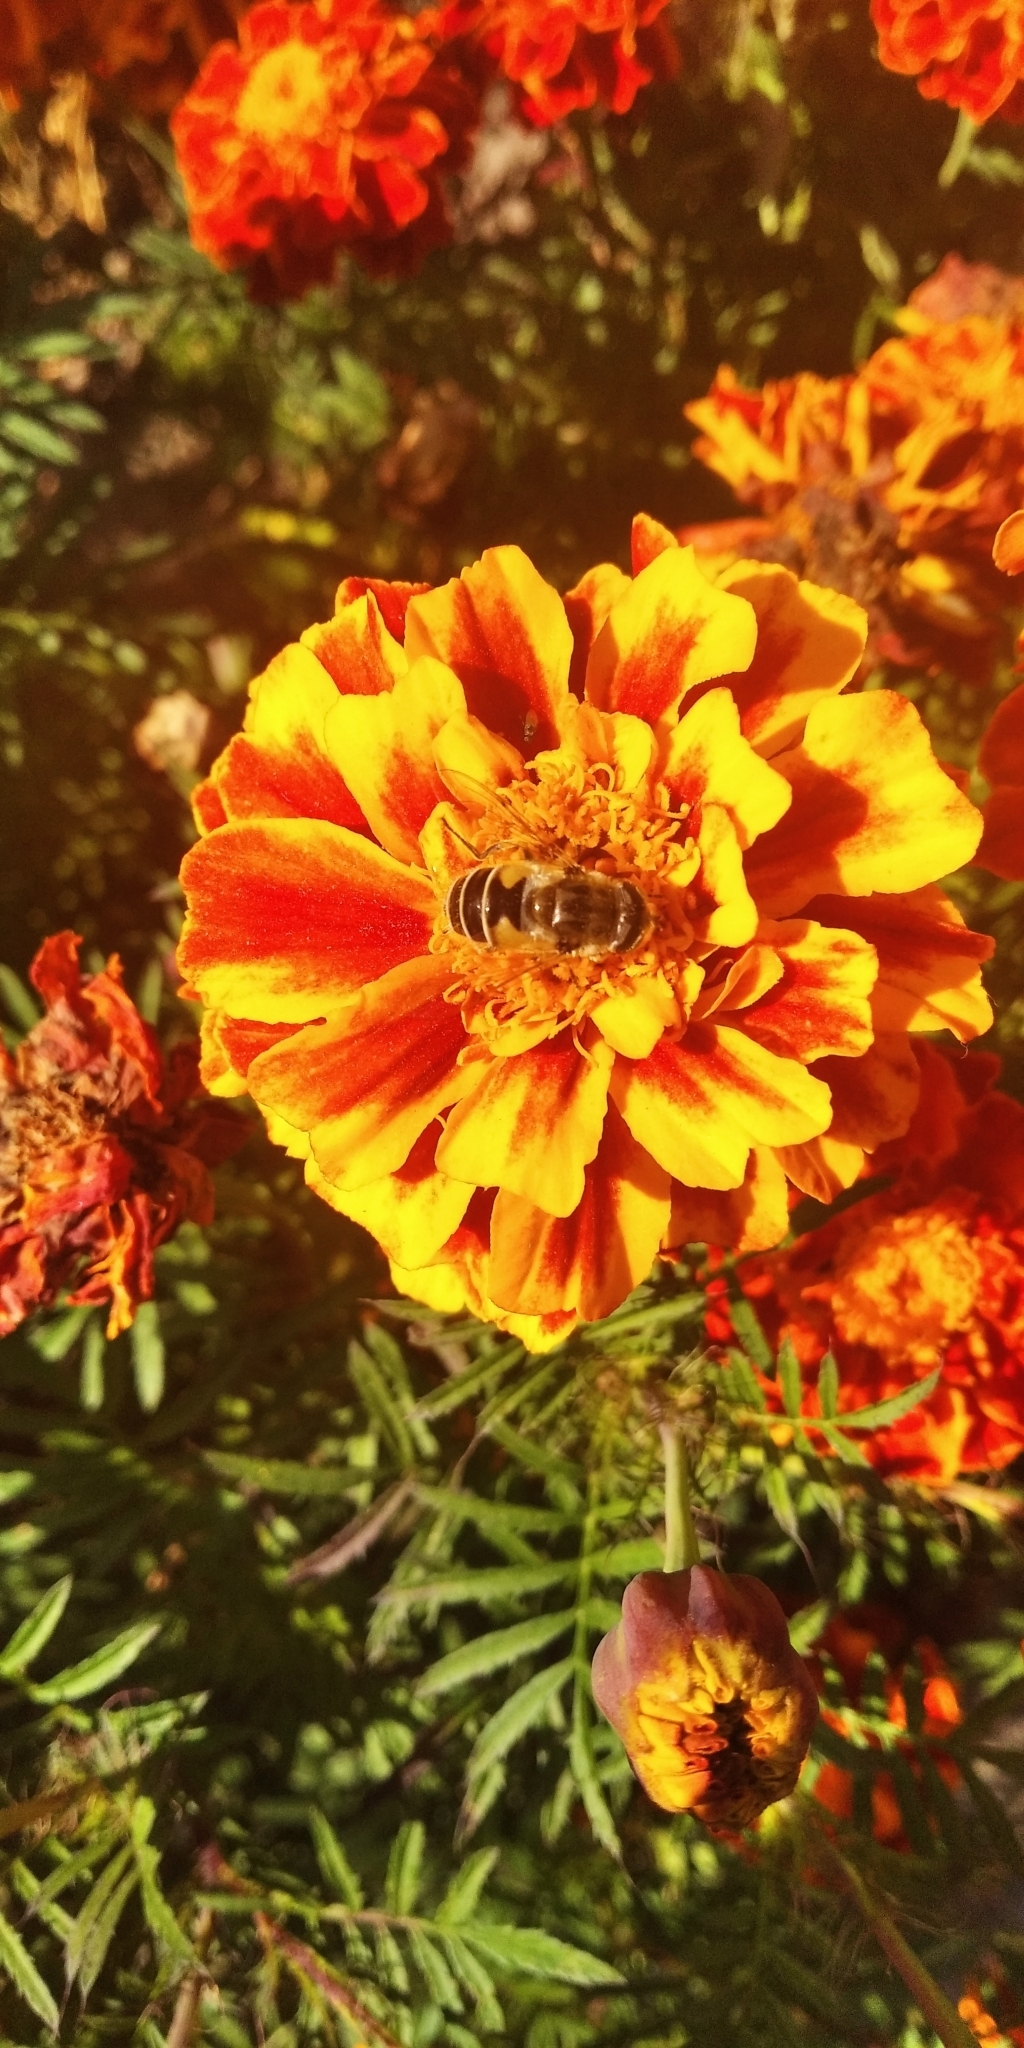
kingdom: Animalia
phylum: Arthropoda
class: Insecta
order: Diptera
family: Syrphidae
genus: Eristalis
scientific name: Eristalis arbustorum
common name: Hover fly
